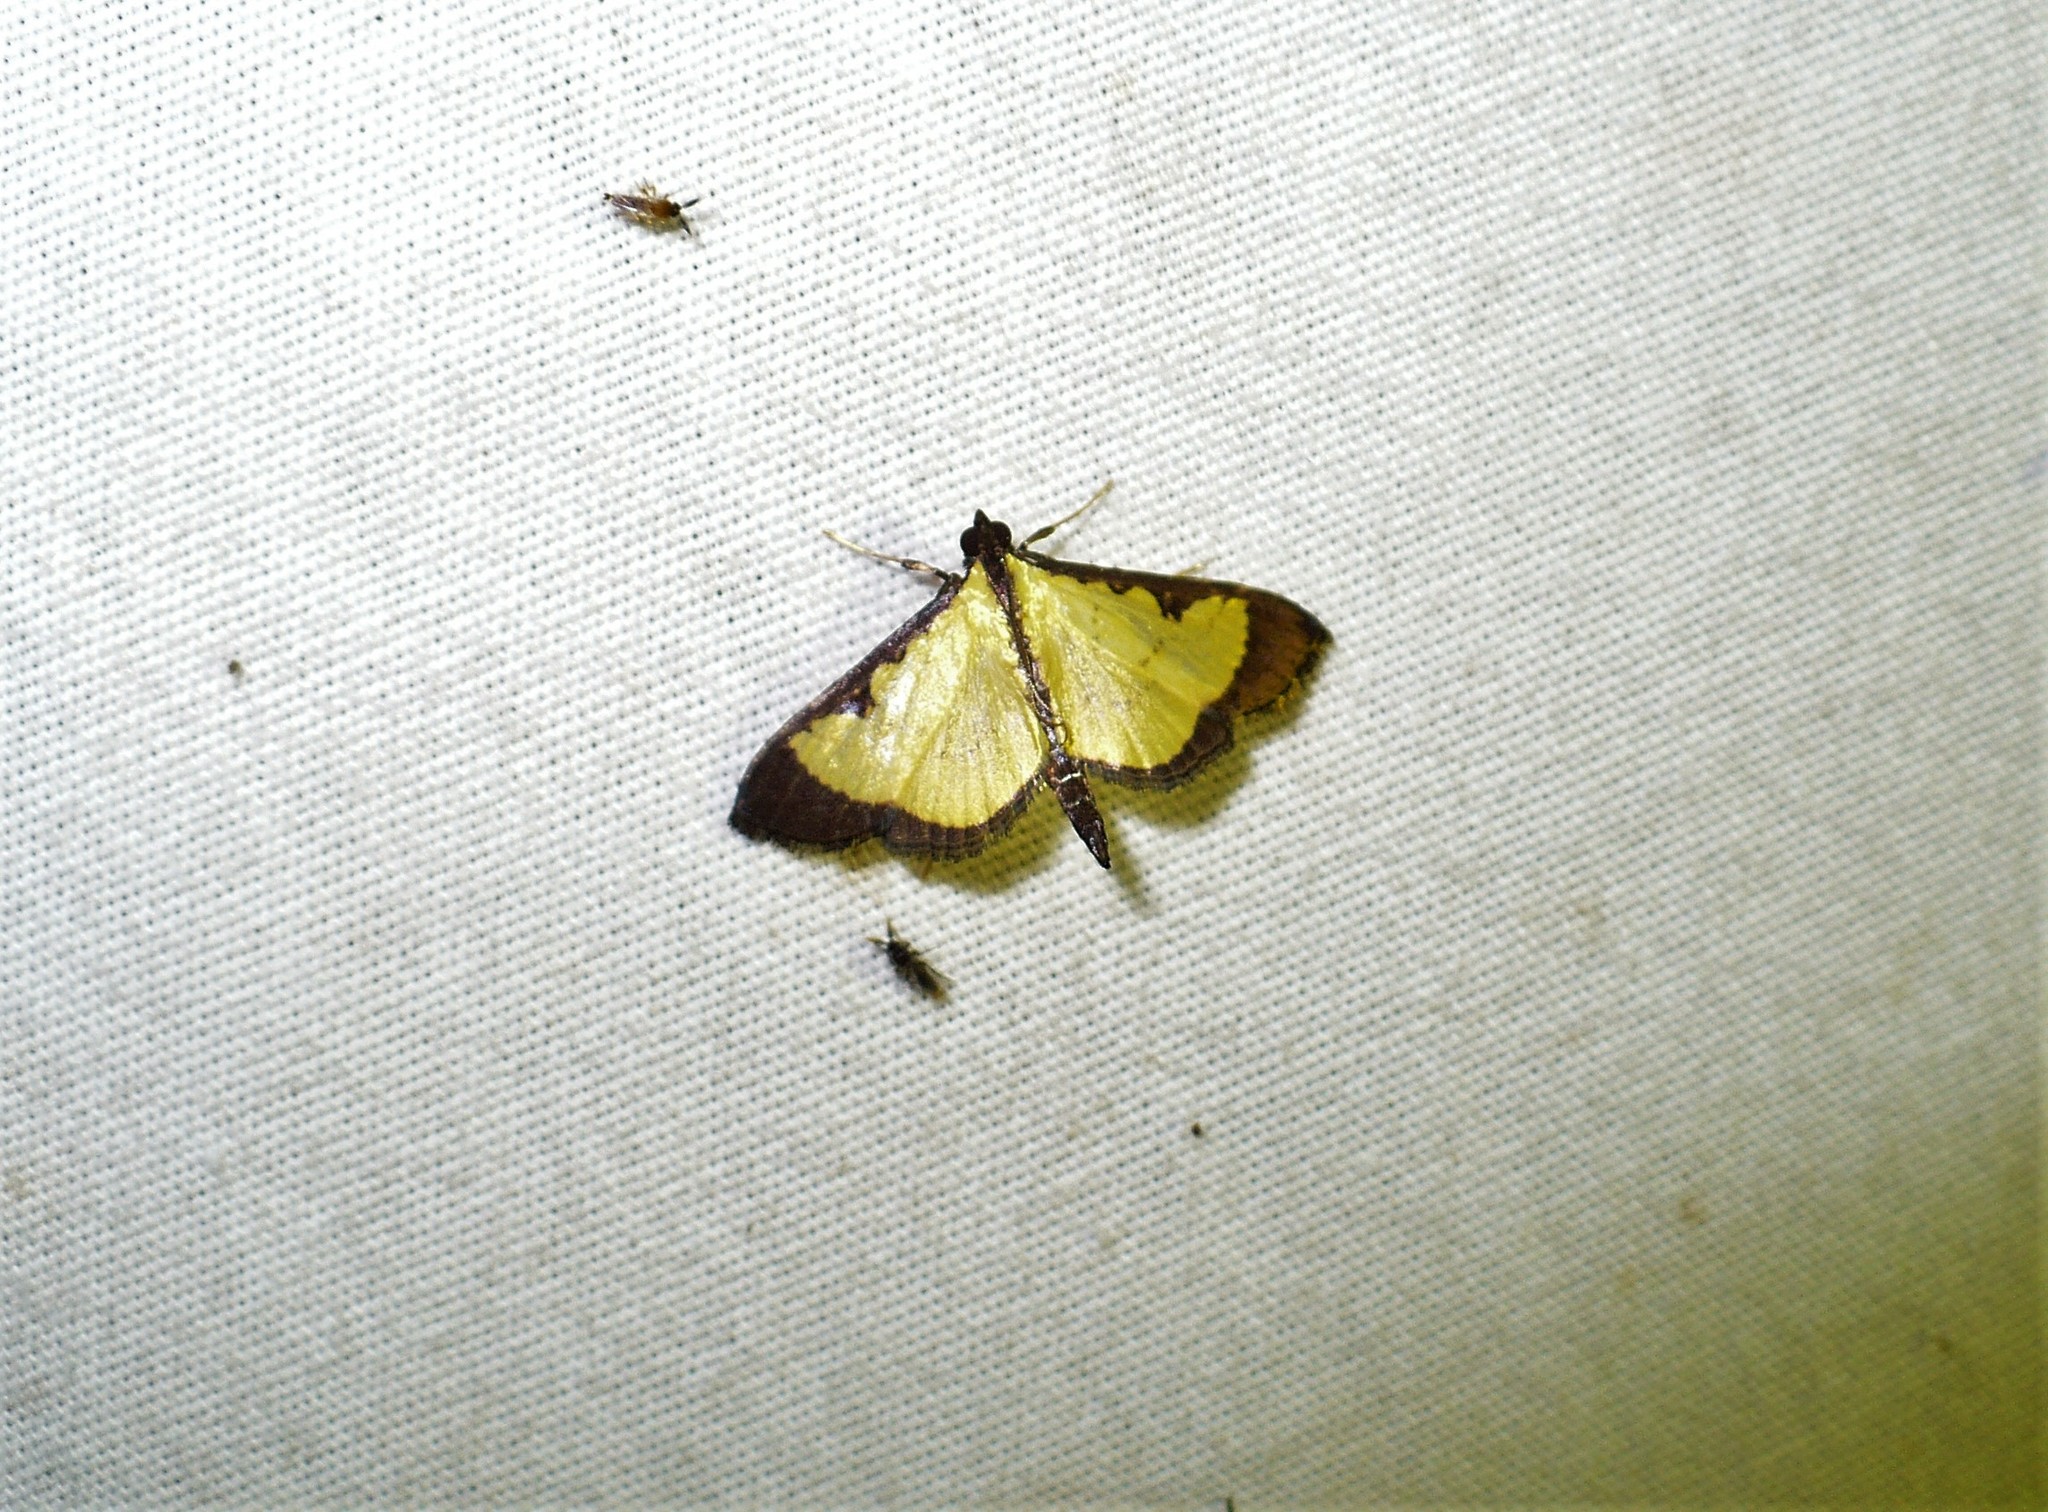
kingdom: Animalia
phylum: Arthropoda
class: Insecta
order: Lepidoptera
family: Crambidae
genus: Goniorhynchus
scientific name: Goniorhynchus
